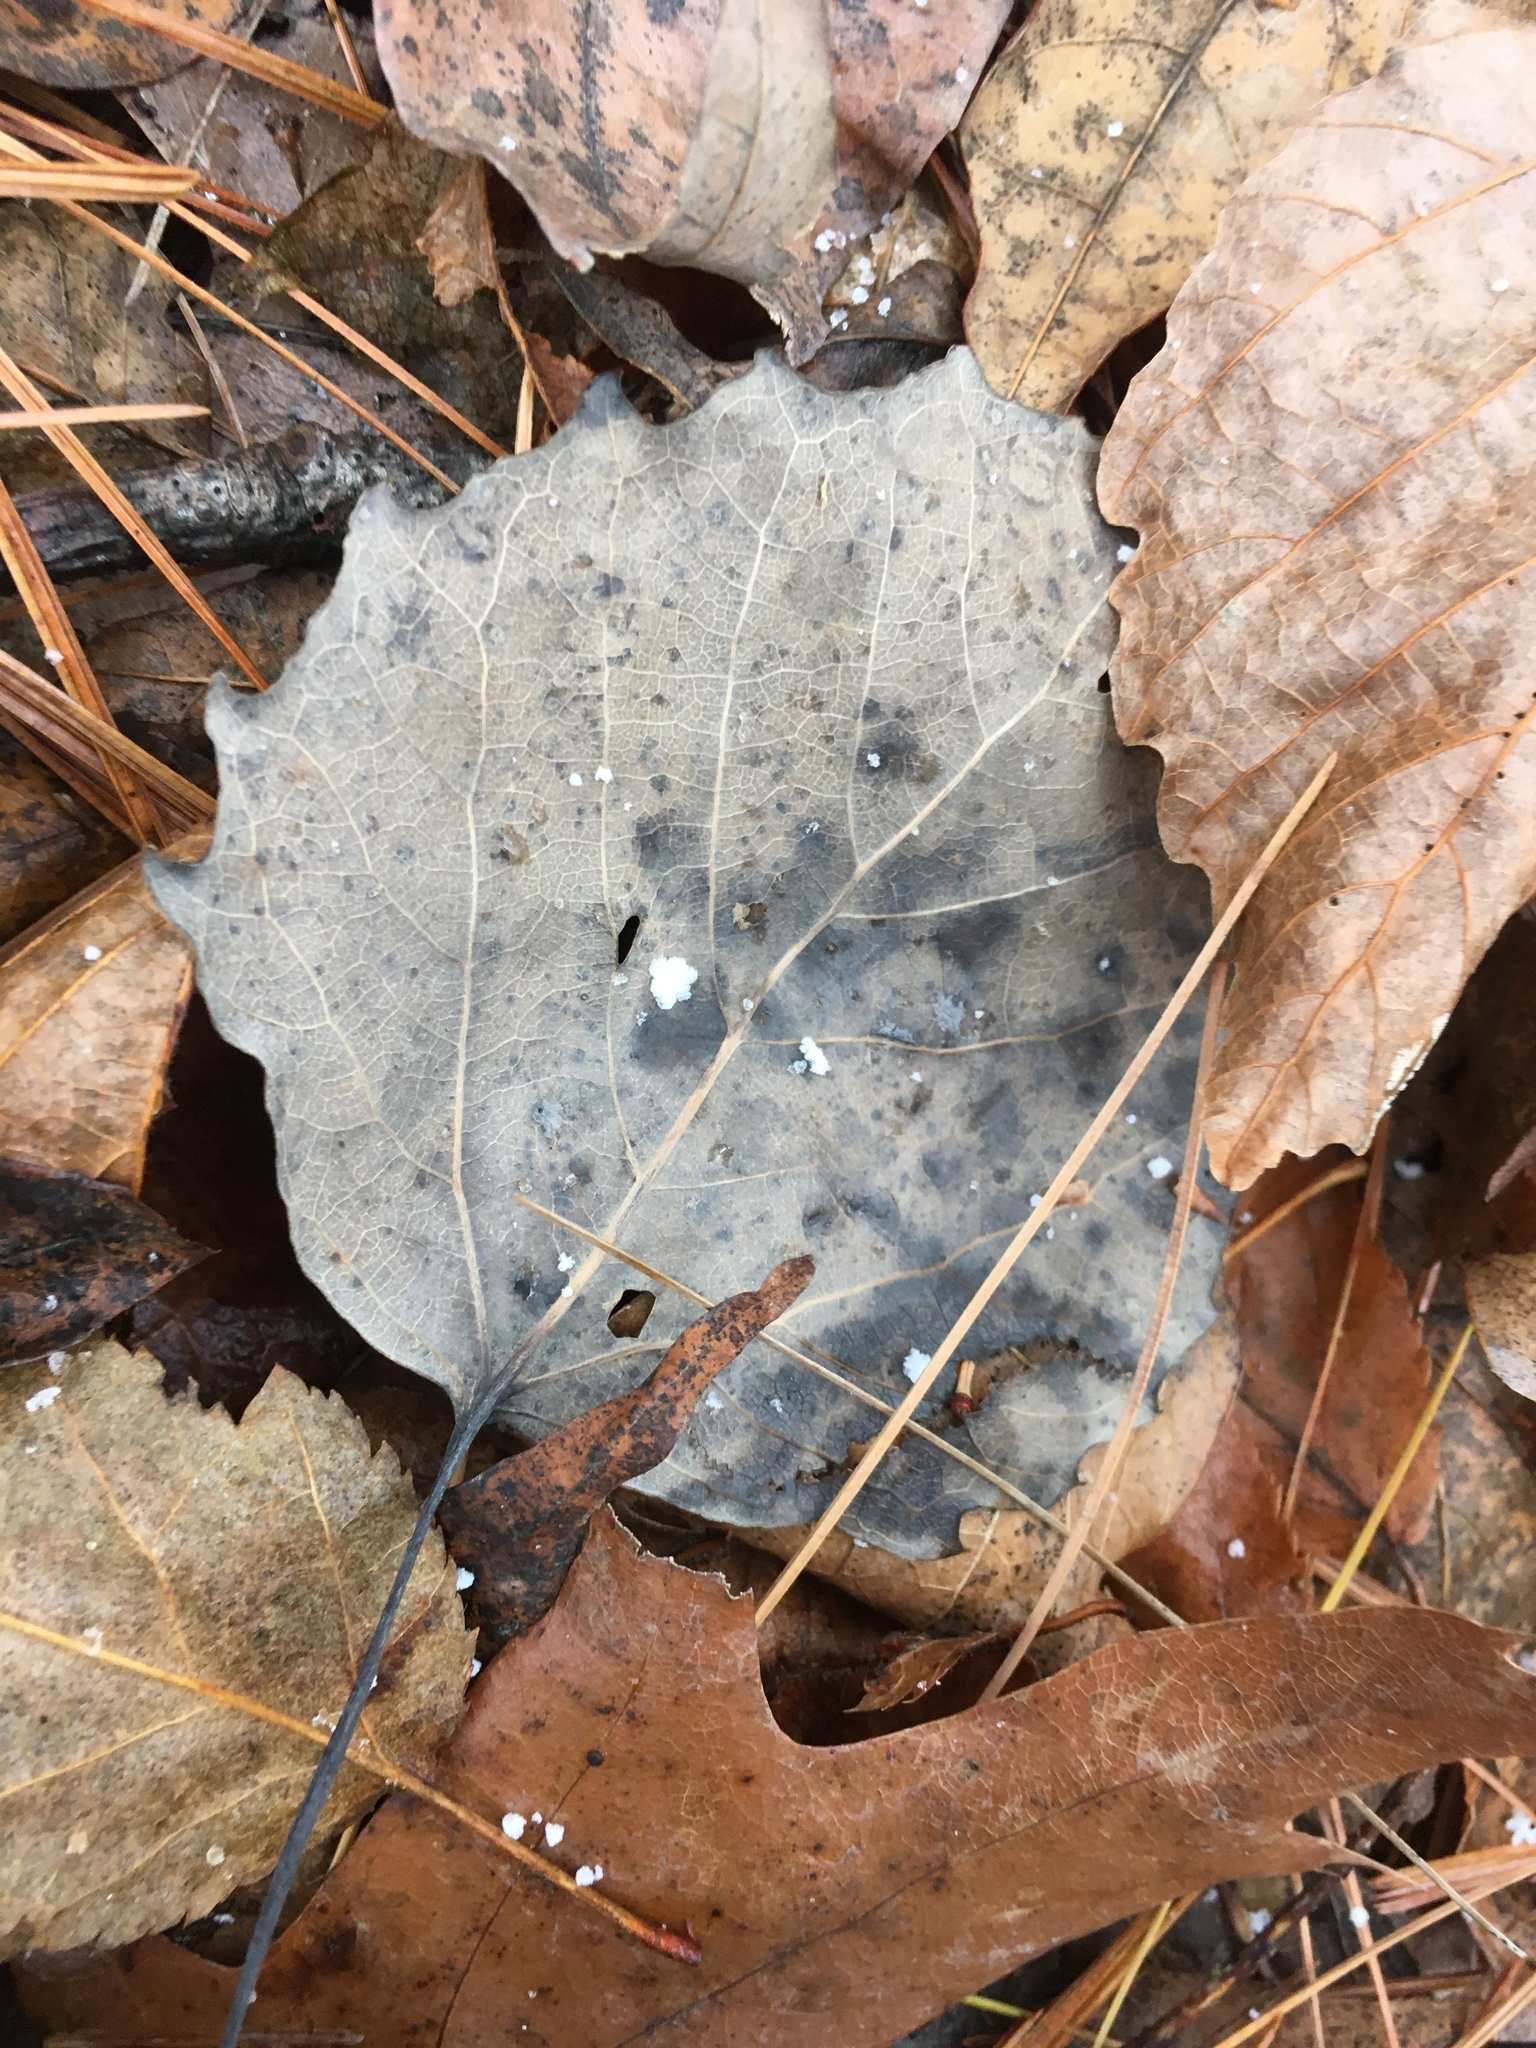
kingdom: Plantae
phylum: Tracheophyta
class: Magnoliopsida
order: Malpighiales
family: Salicaceae
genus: Populus
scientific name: Populus grandidentata
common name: Bigtooth aspen
